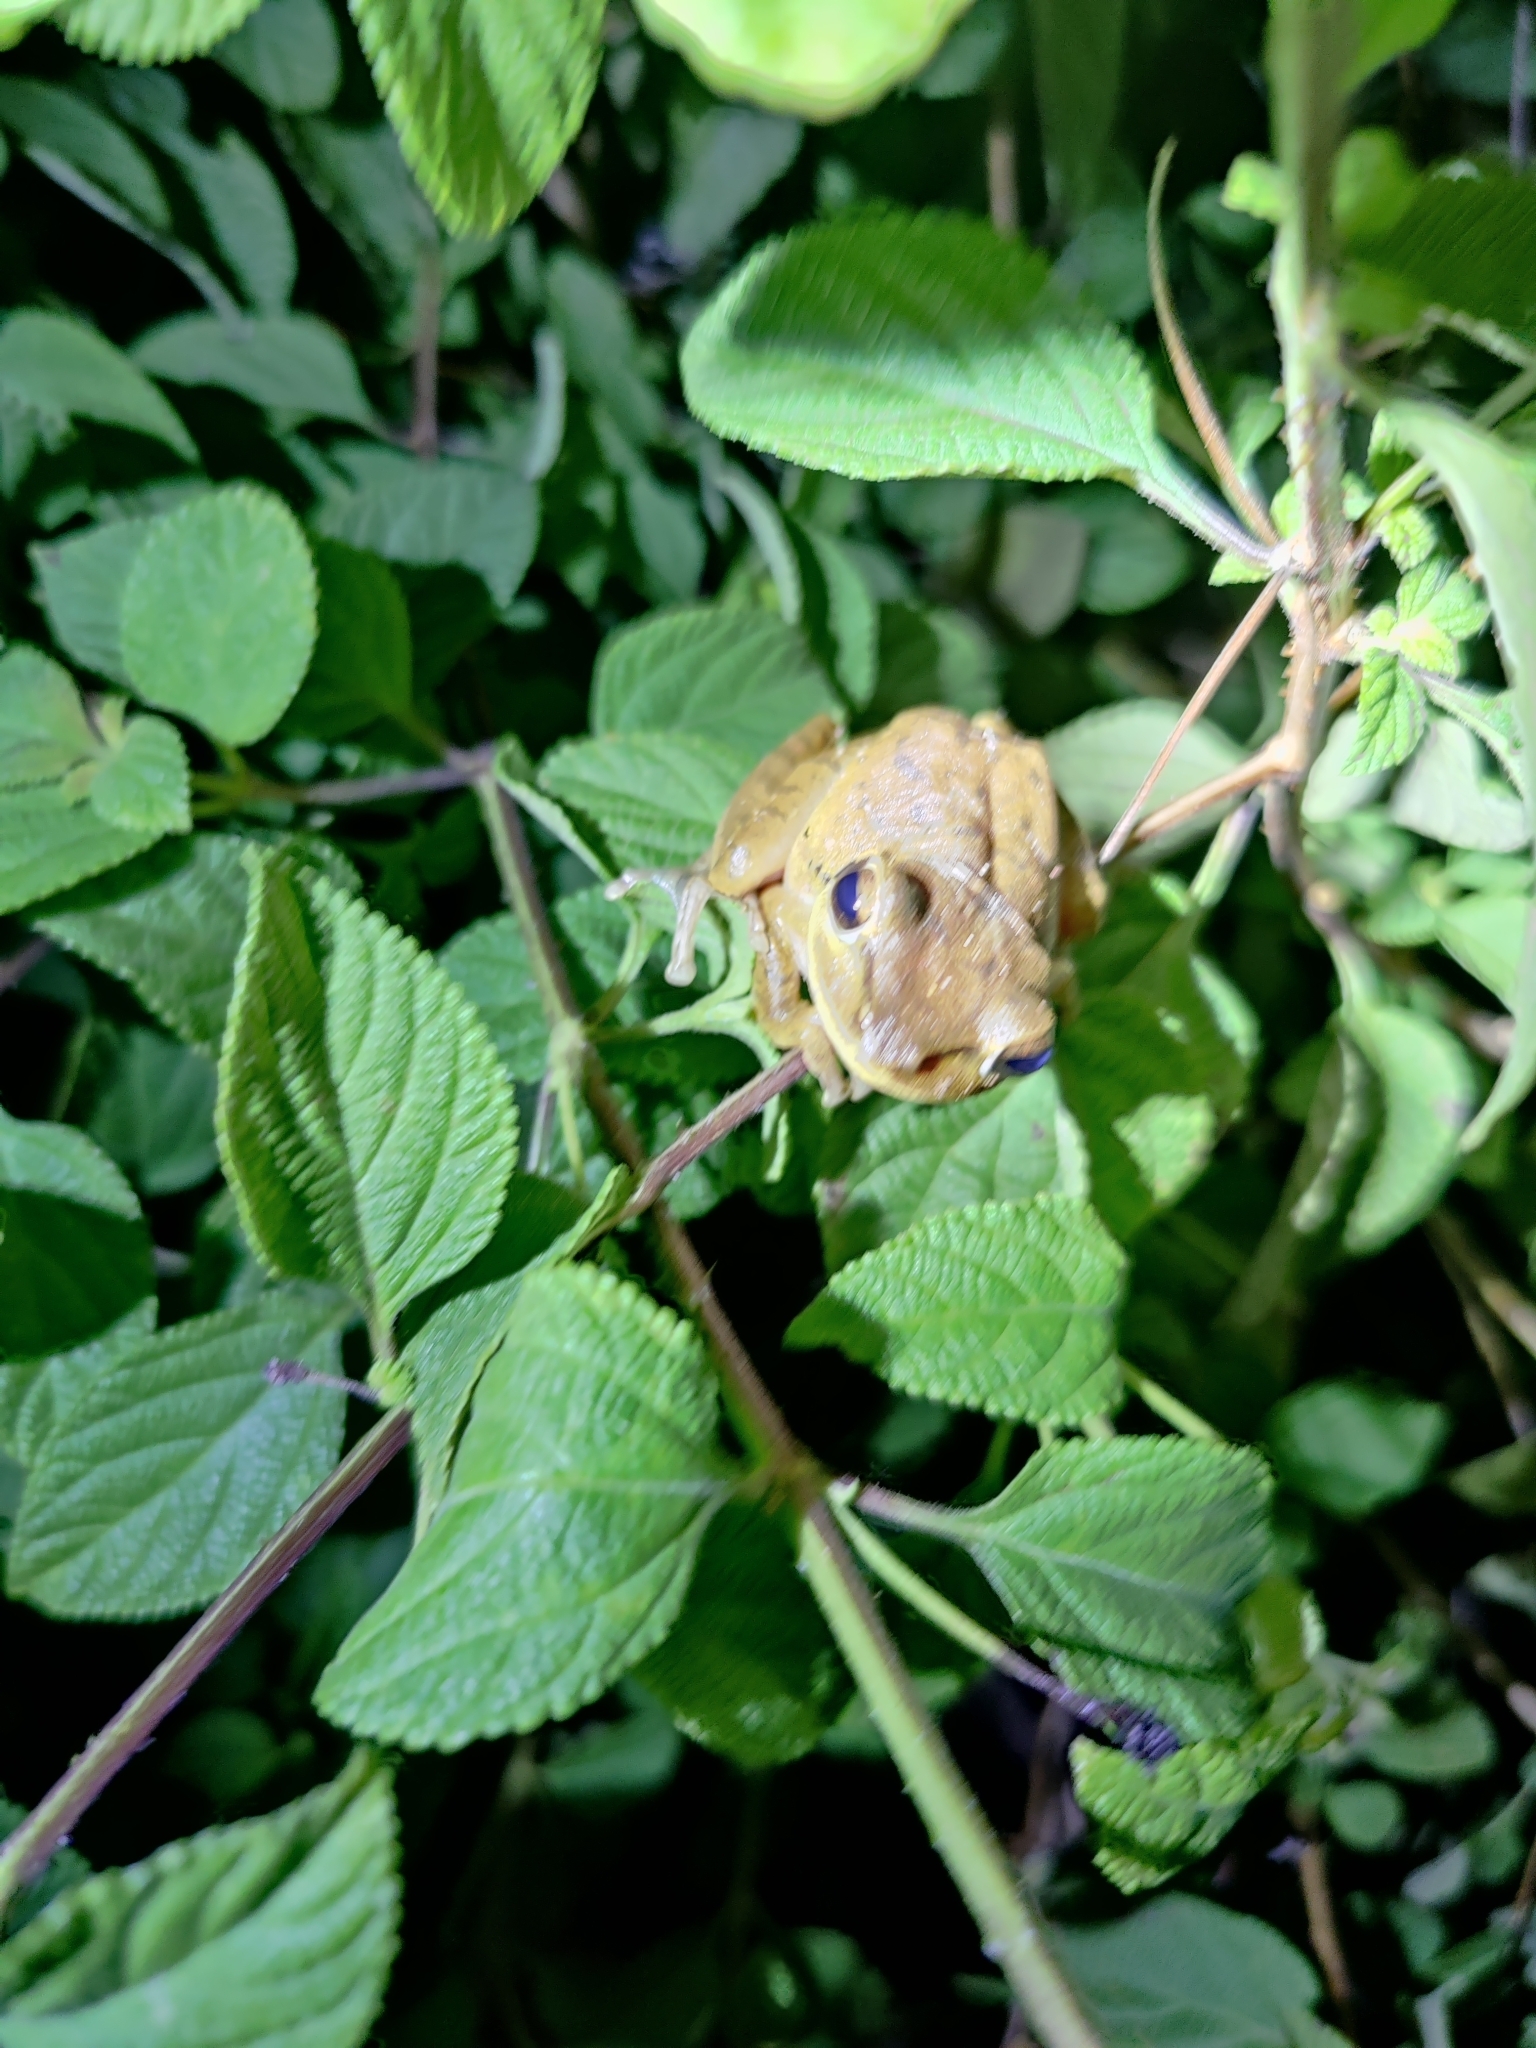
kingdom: Animalia
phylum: Chordata
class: Amphibia
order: Anura
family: Rhacophoridae
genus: Polypedates
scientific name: Polypedates maculatus
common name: Himalayan tree frog
